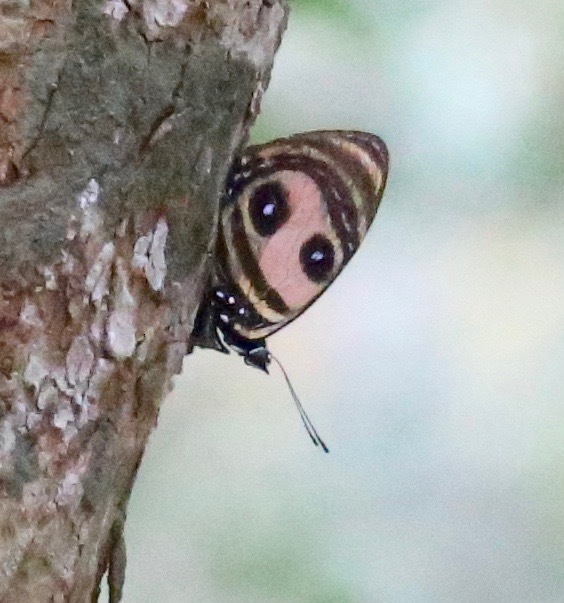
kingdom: Animalia
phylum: Arthropoda
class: Insecta
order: Lepidoptera
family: Nymphalidae
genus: Catagramma
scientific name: Catagramma Callicore pitheas
